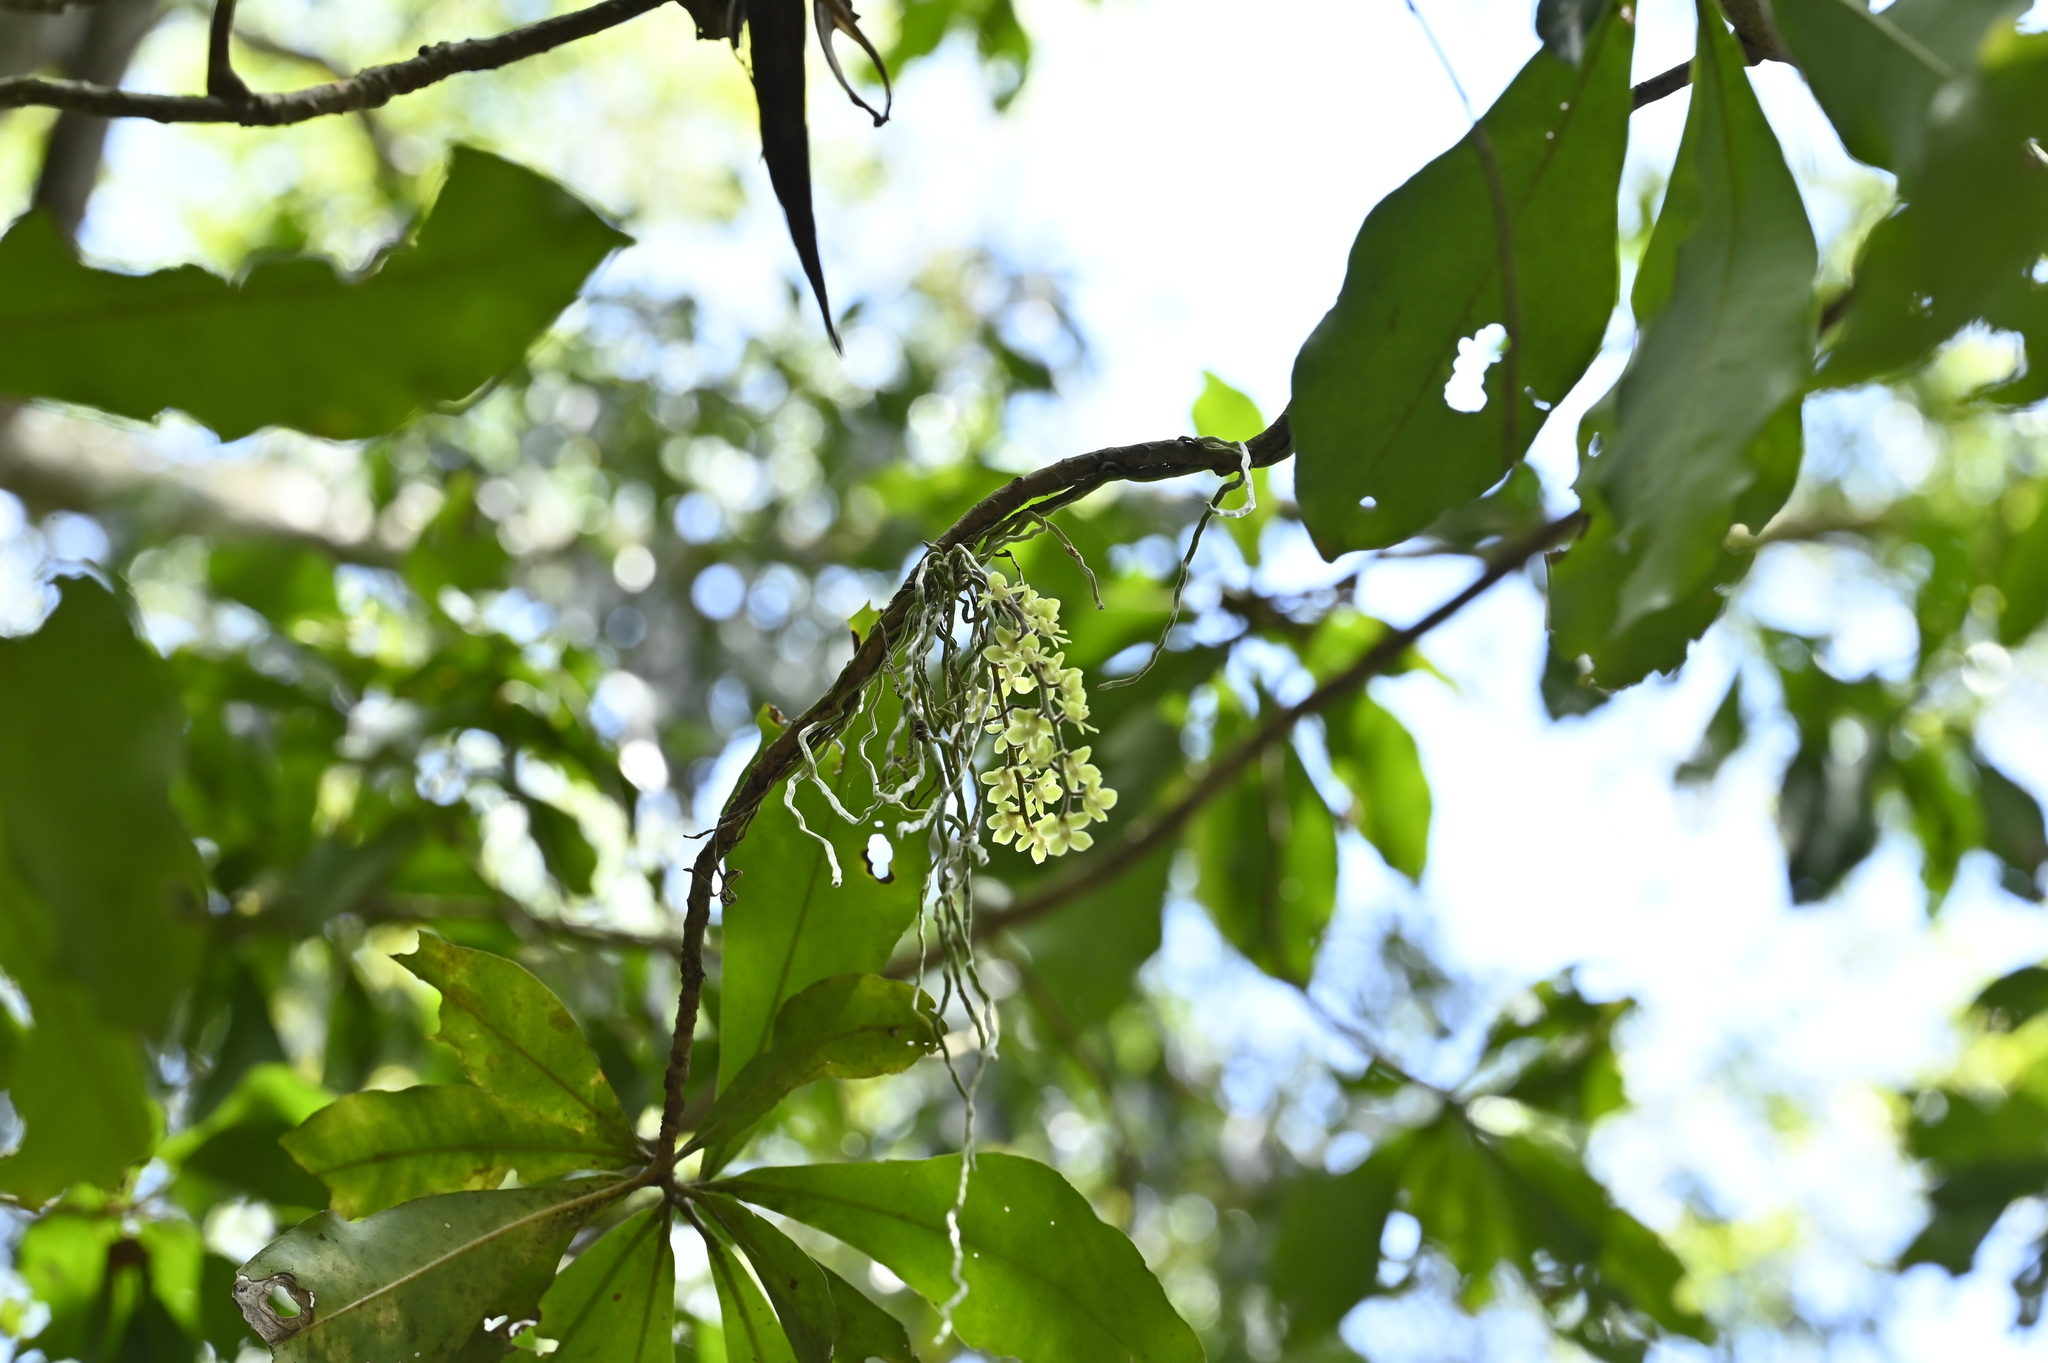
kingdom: Plantae
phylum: Tracheophyta
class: Liliopsida
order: Asparagales
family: Orchidaceae
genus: Chiloschista
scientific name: Chiloschista segawae
